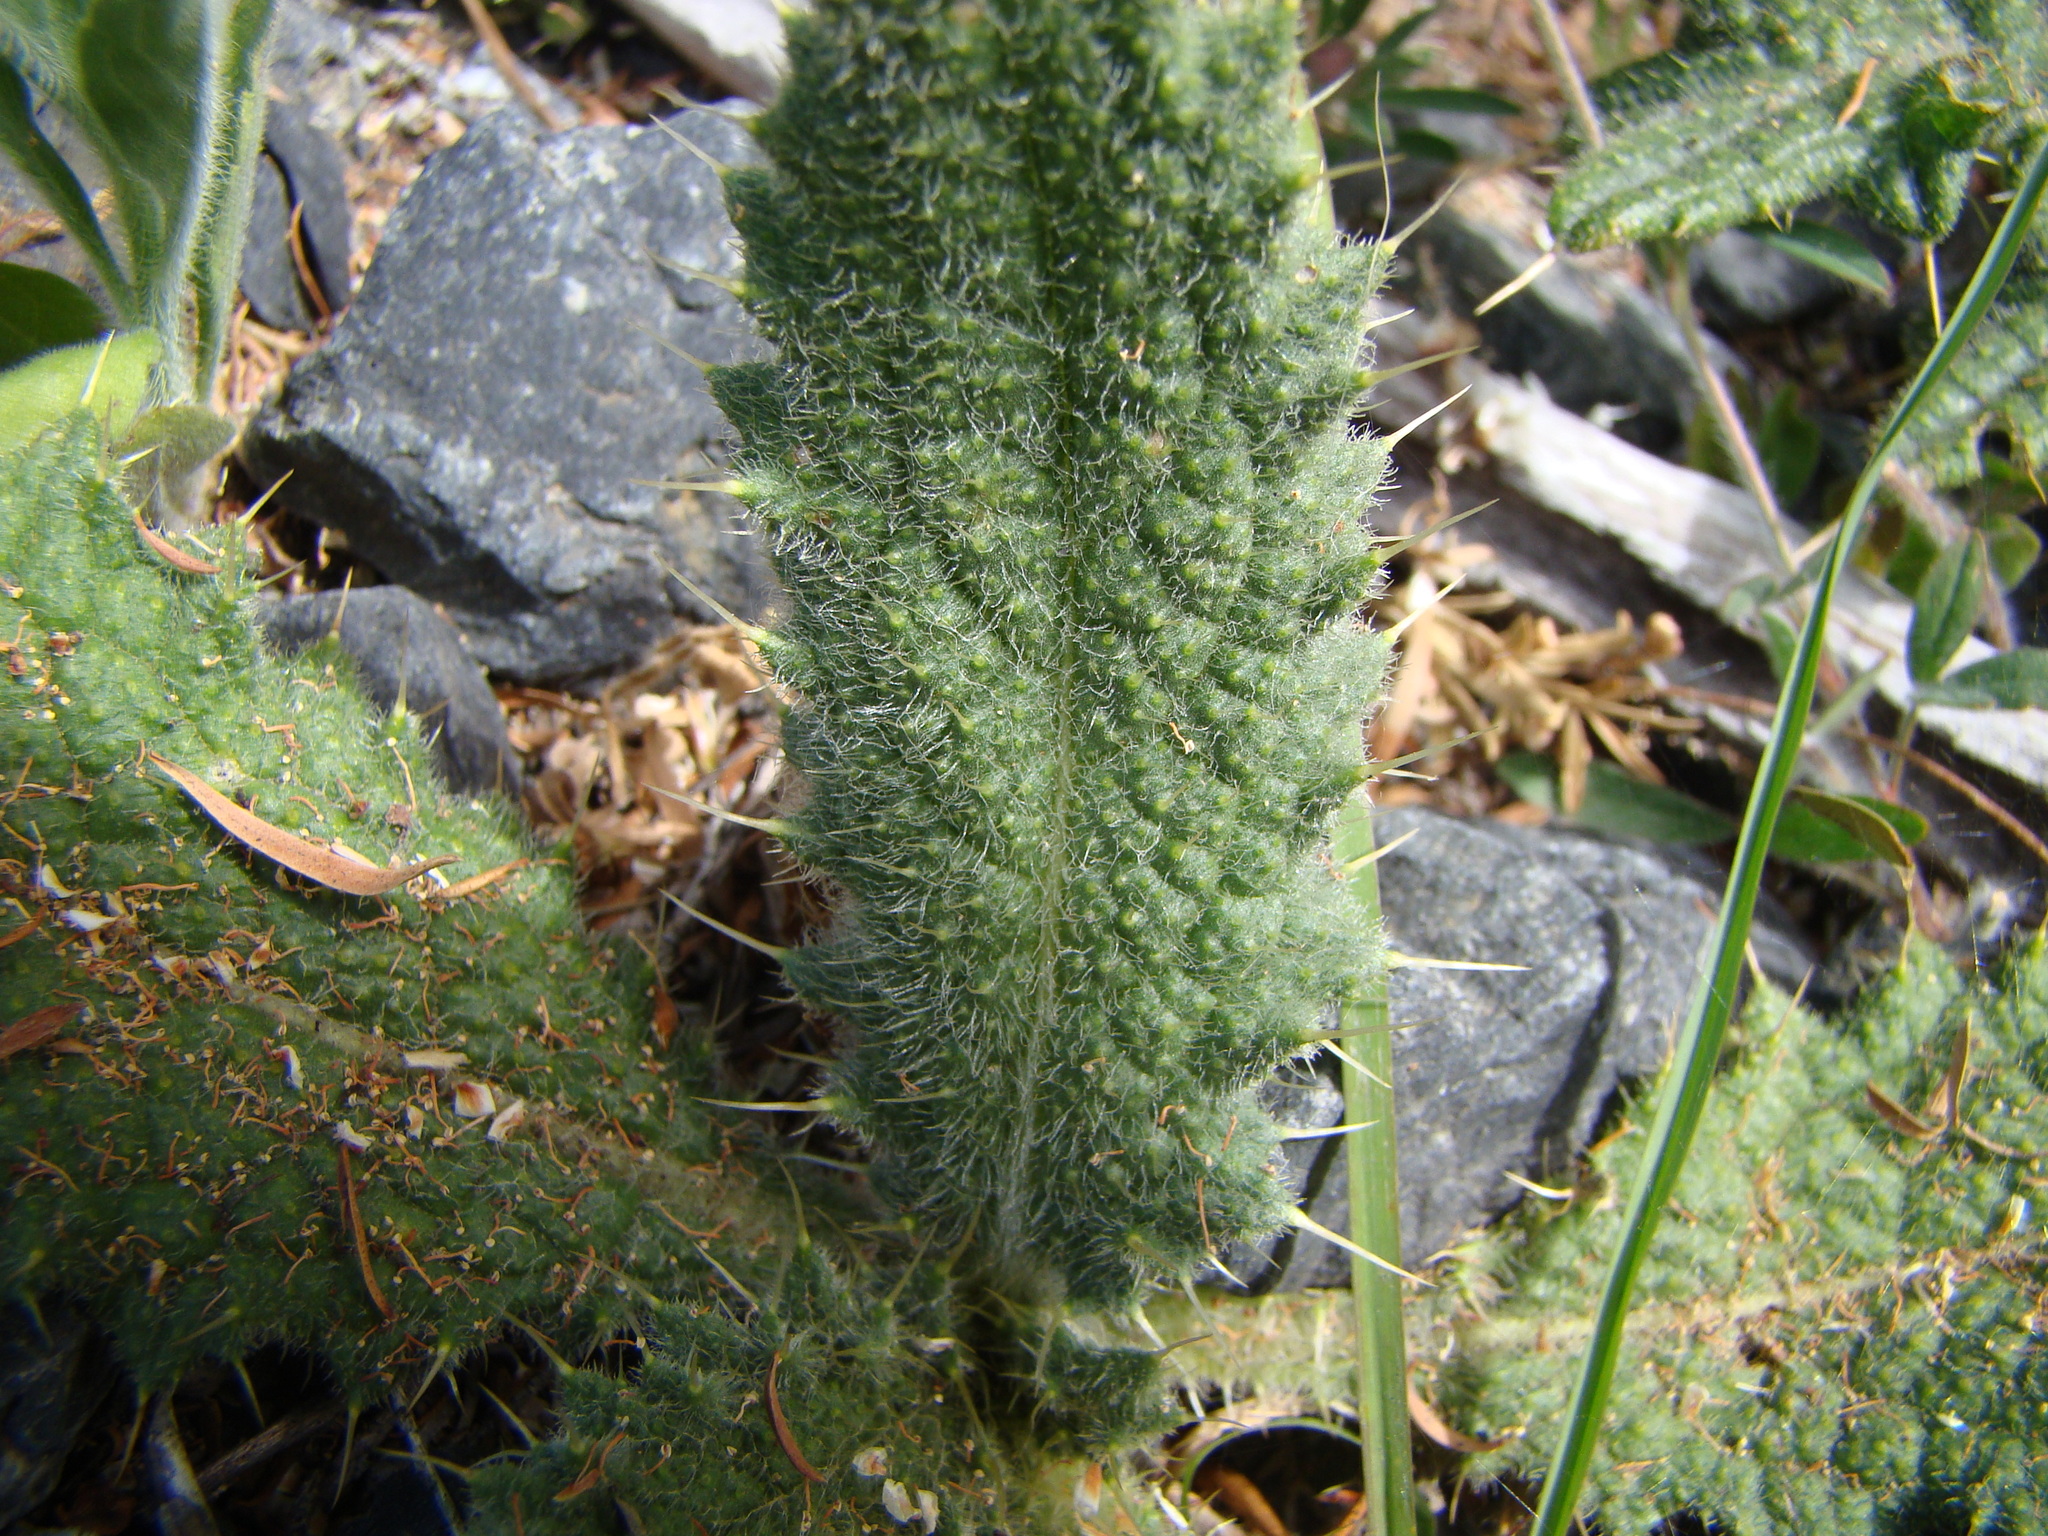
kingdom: Plantae
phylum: Tracheophyta
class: Magnoliopsida
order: Asterales
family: Asteraceae
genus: Cirsium
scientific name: Cirsium vulgare
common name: Bull thistle
